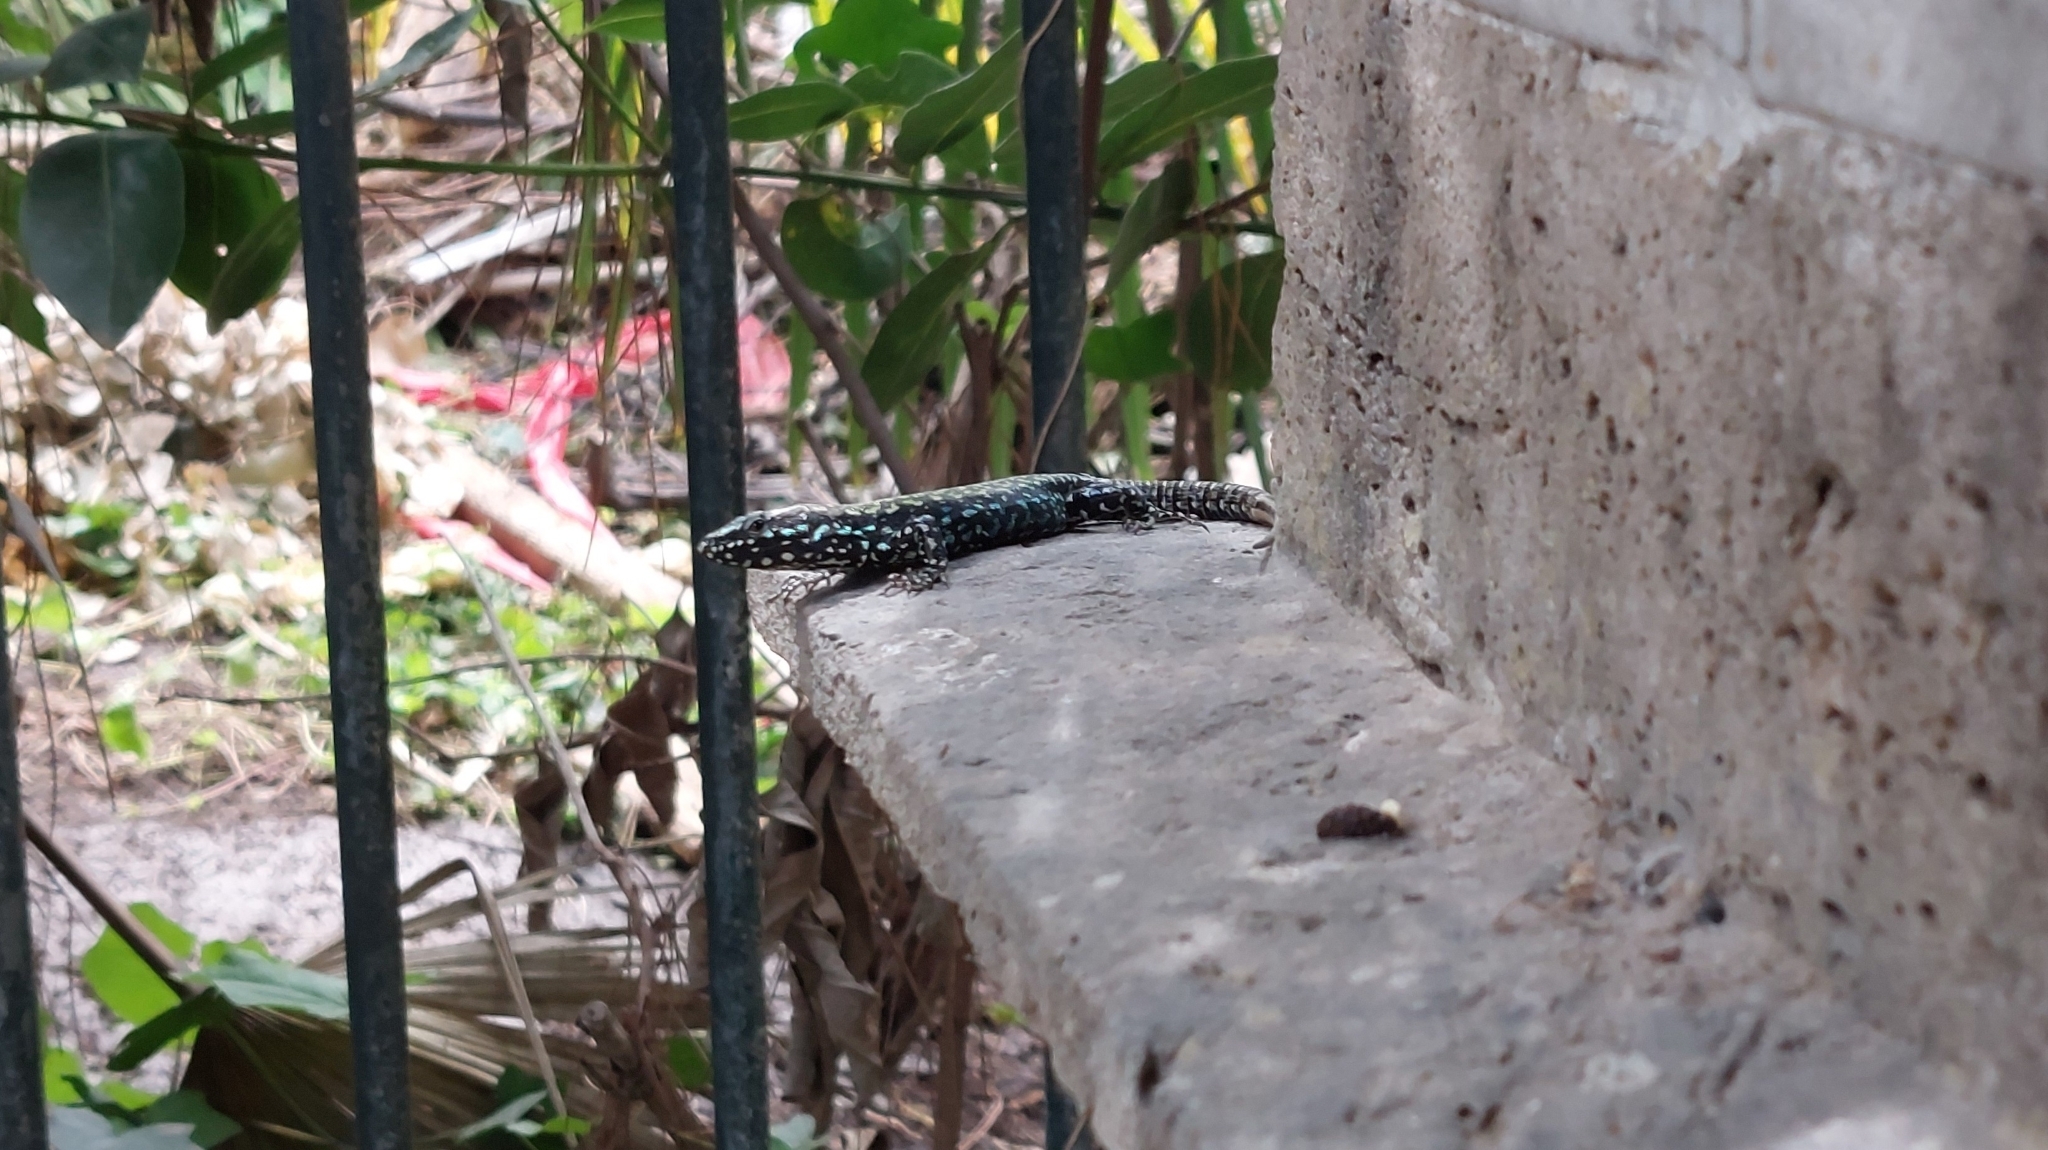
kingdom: Animalia
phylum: Chordata
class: Squamata
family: Lacertidae
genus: Podarcis
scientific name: Podarcis muralis
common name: Common wall lizard
